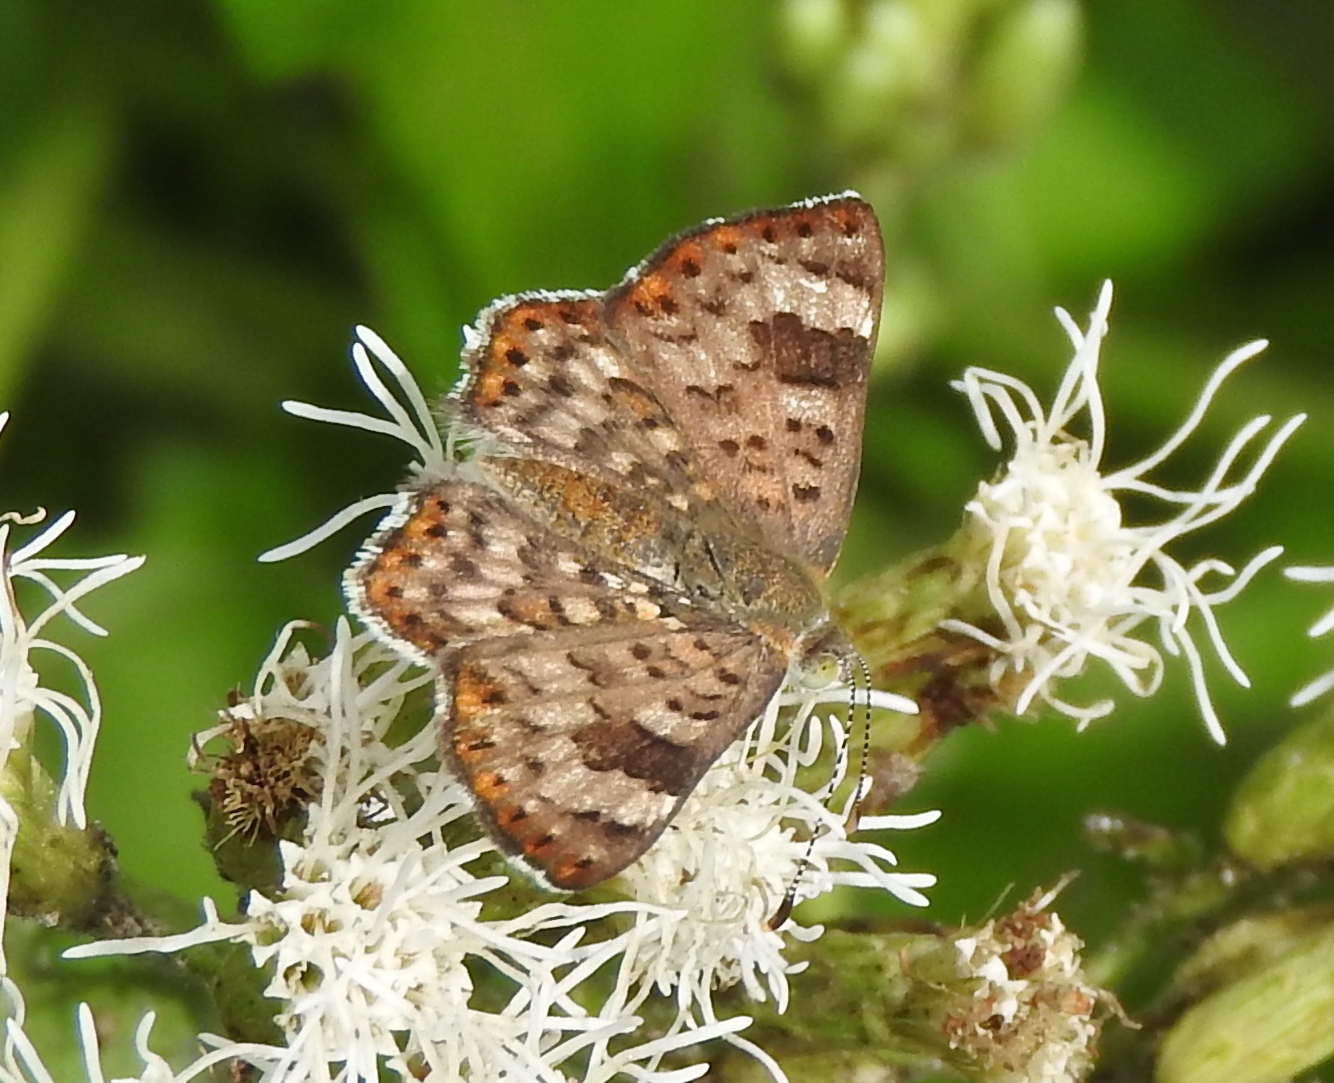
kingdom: Animalia
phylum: Arthropoda
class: Insecta
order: Lepidoptera
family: Riodinidae
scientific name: Riodinidae
